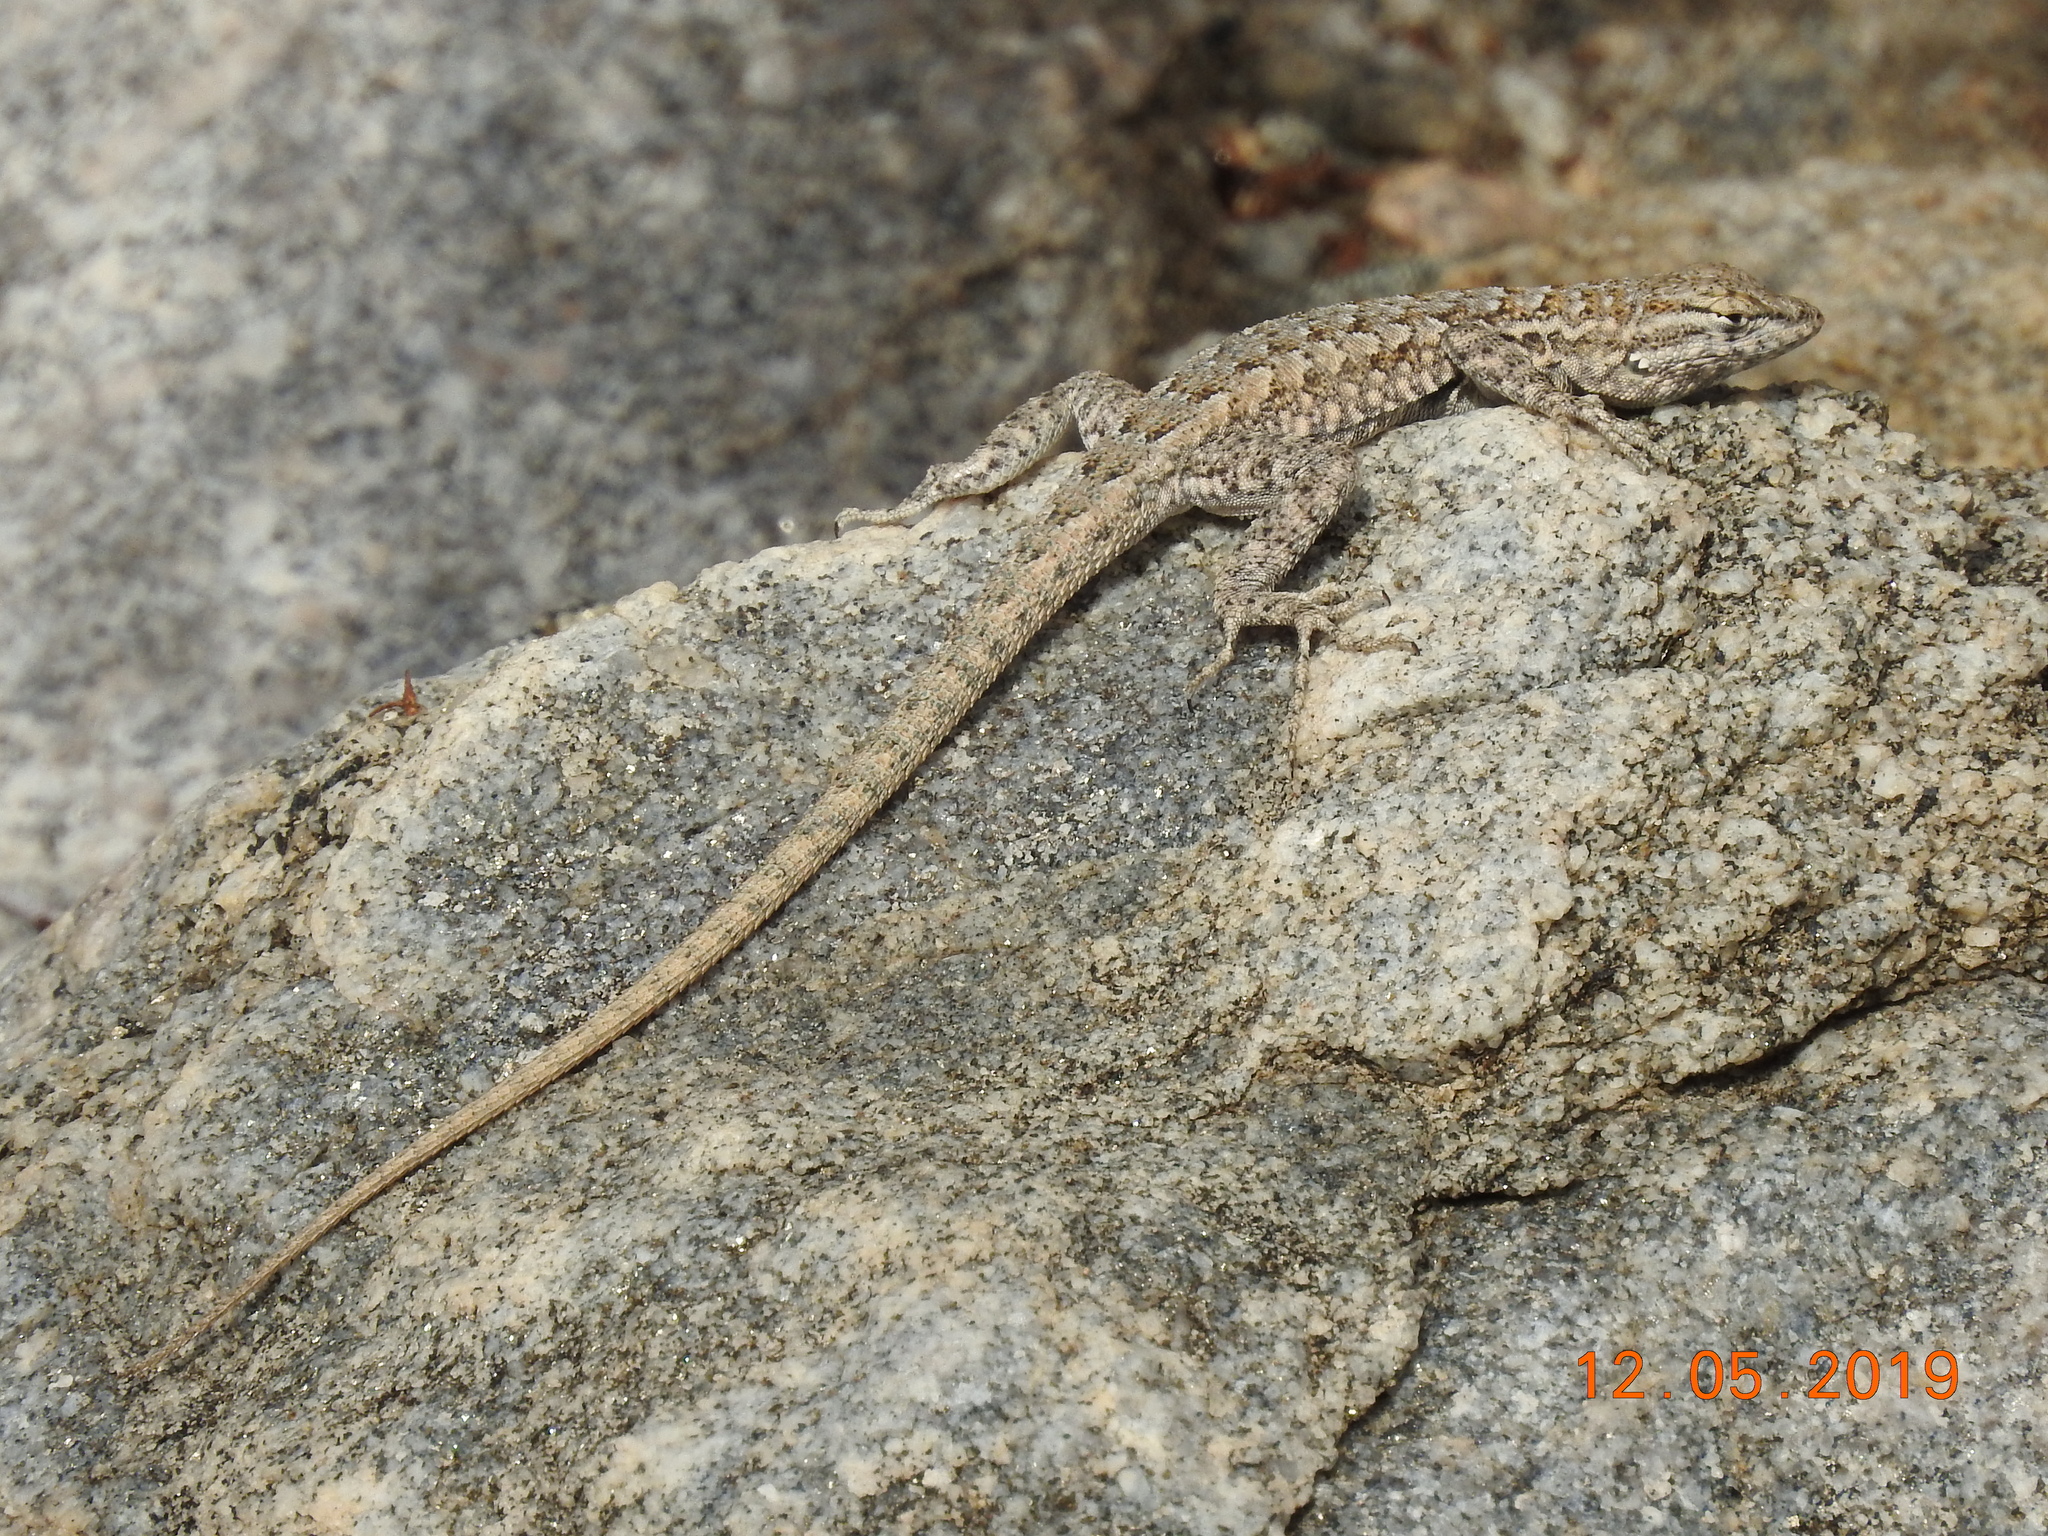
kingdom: Animalia
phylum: Chordata
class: Squamata
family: Phrynosomatidae
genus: Uta
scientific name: Uta stansburiana
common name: Side-blotched lizard
